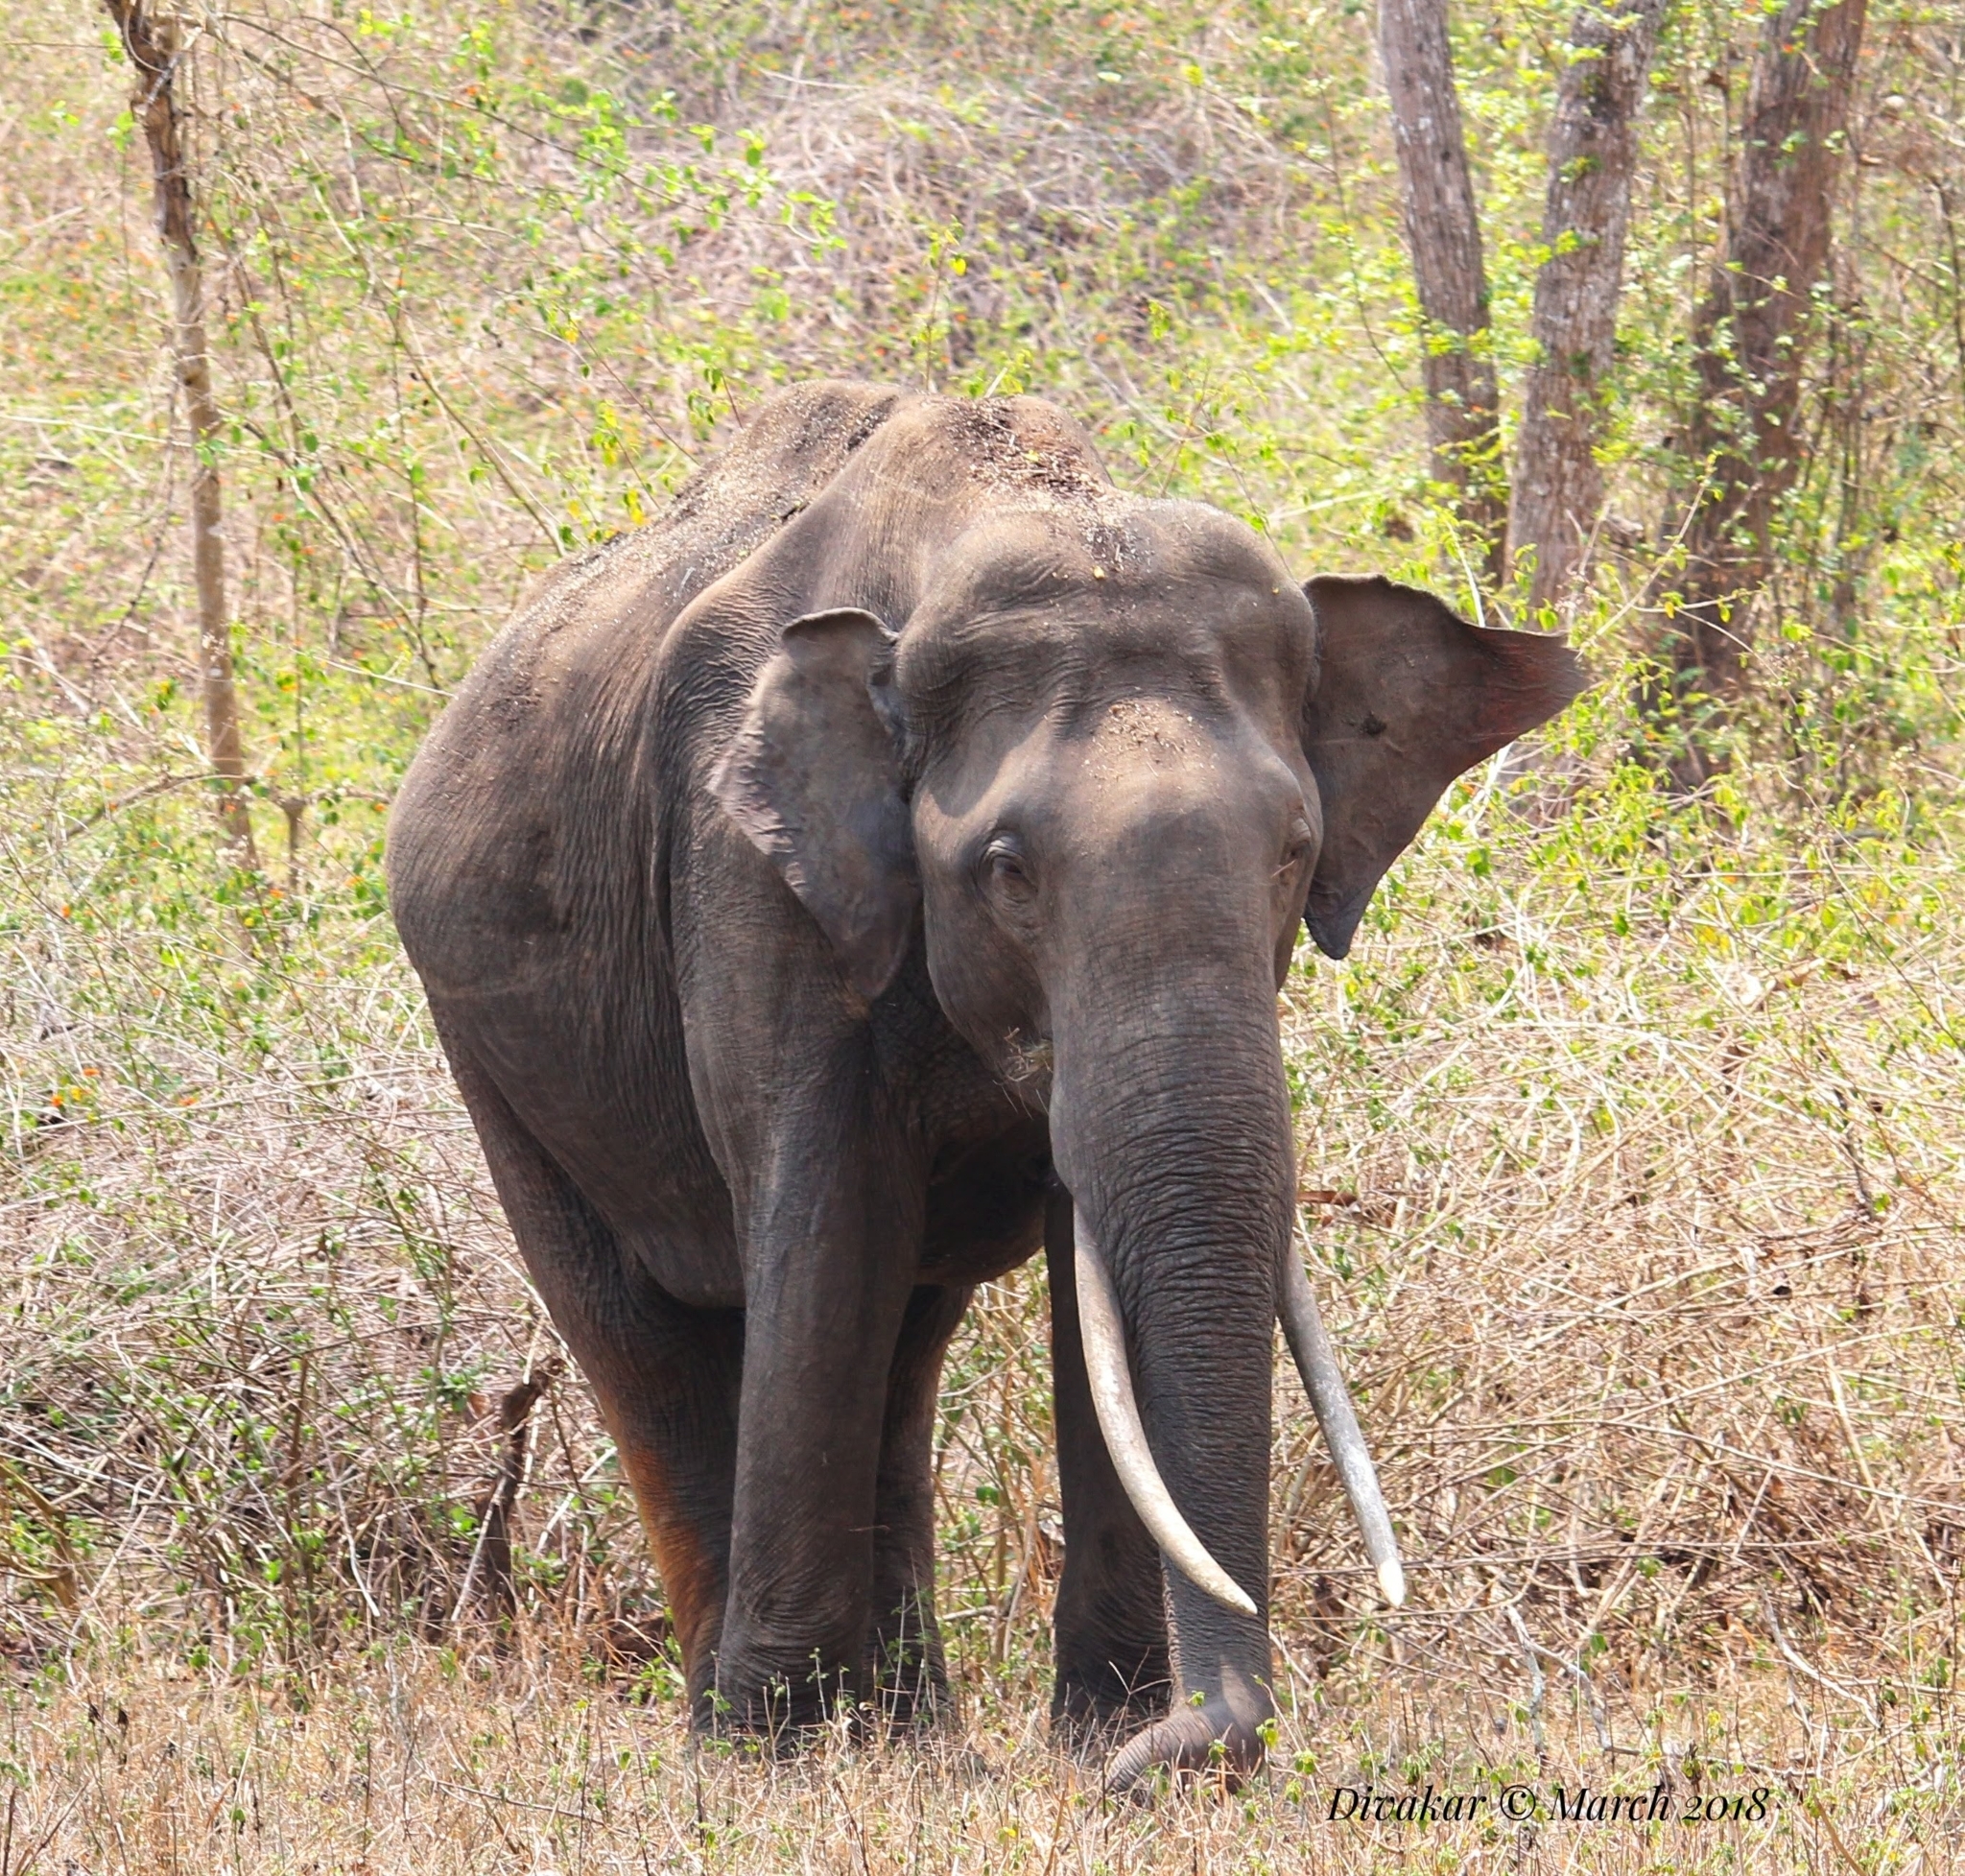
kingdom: Animalia
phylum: Chordata
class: Mammalia
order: Proboscidea
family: Elephantidae
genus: Elephas
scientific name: Elephas maximus
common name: Asian elephant
